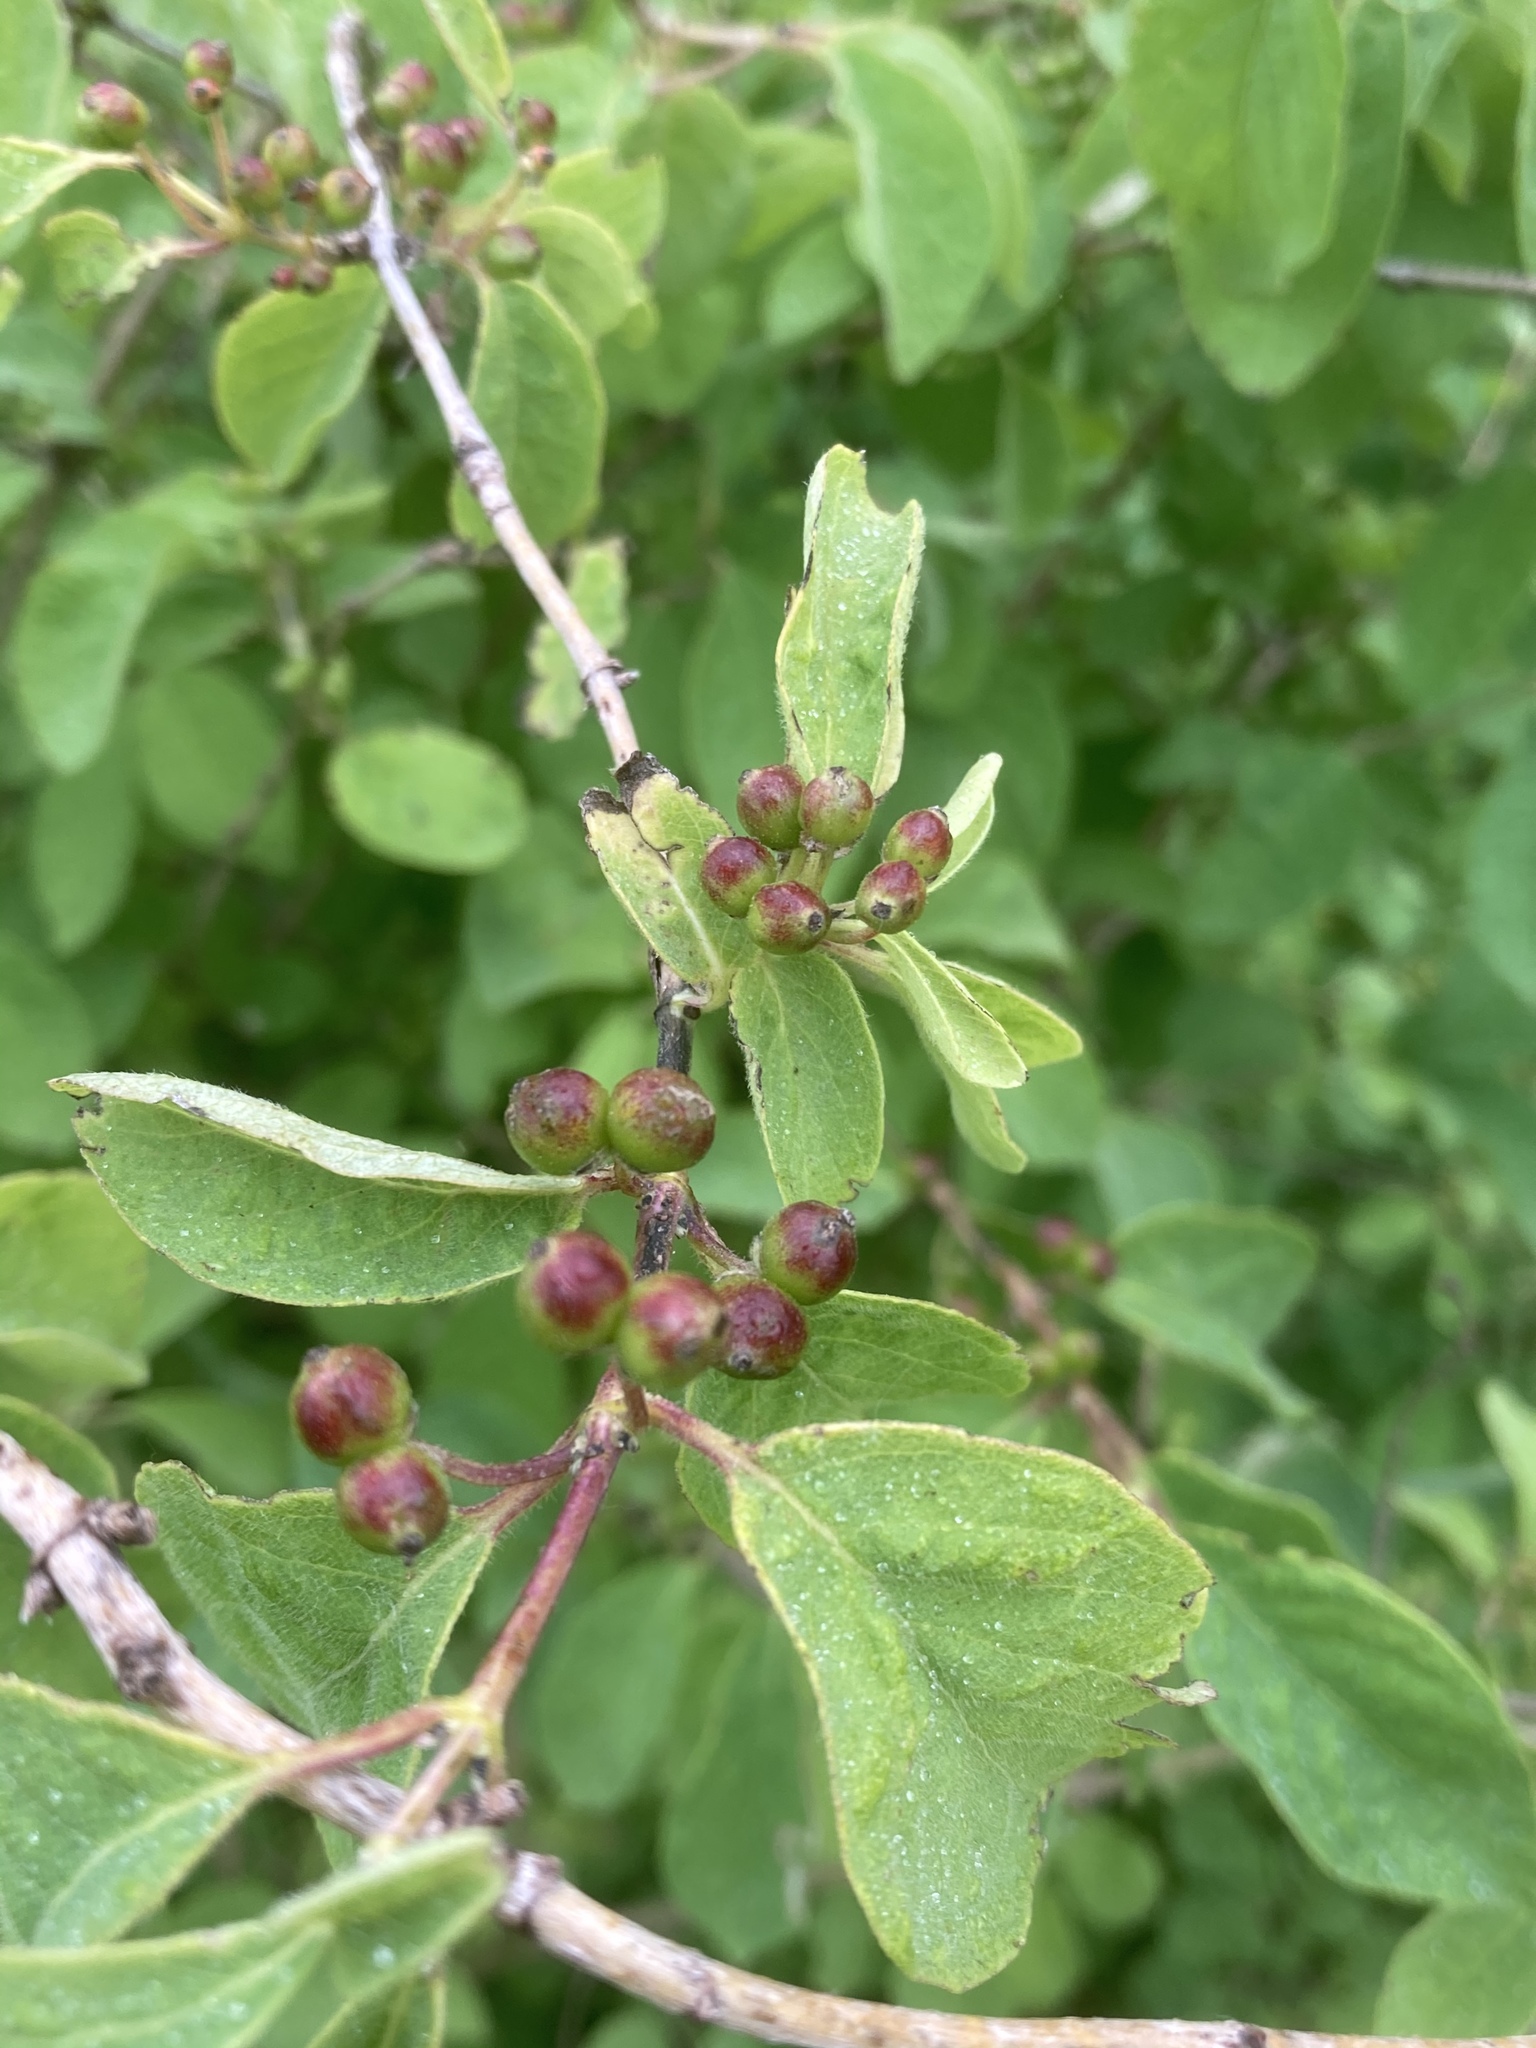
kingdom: Plantae
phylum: Tracheophyta
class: Magnoliopsida
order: Dipsacales
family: Caprifoliaceae
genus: Lonicera
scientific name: Lonicera xylosteum
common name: Fly honeysuckle
